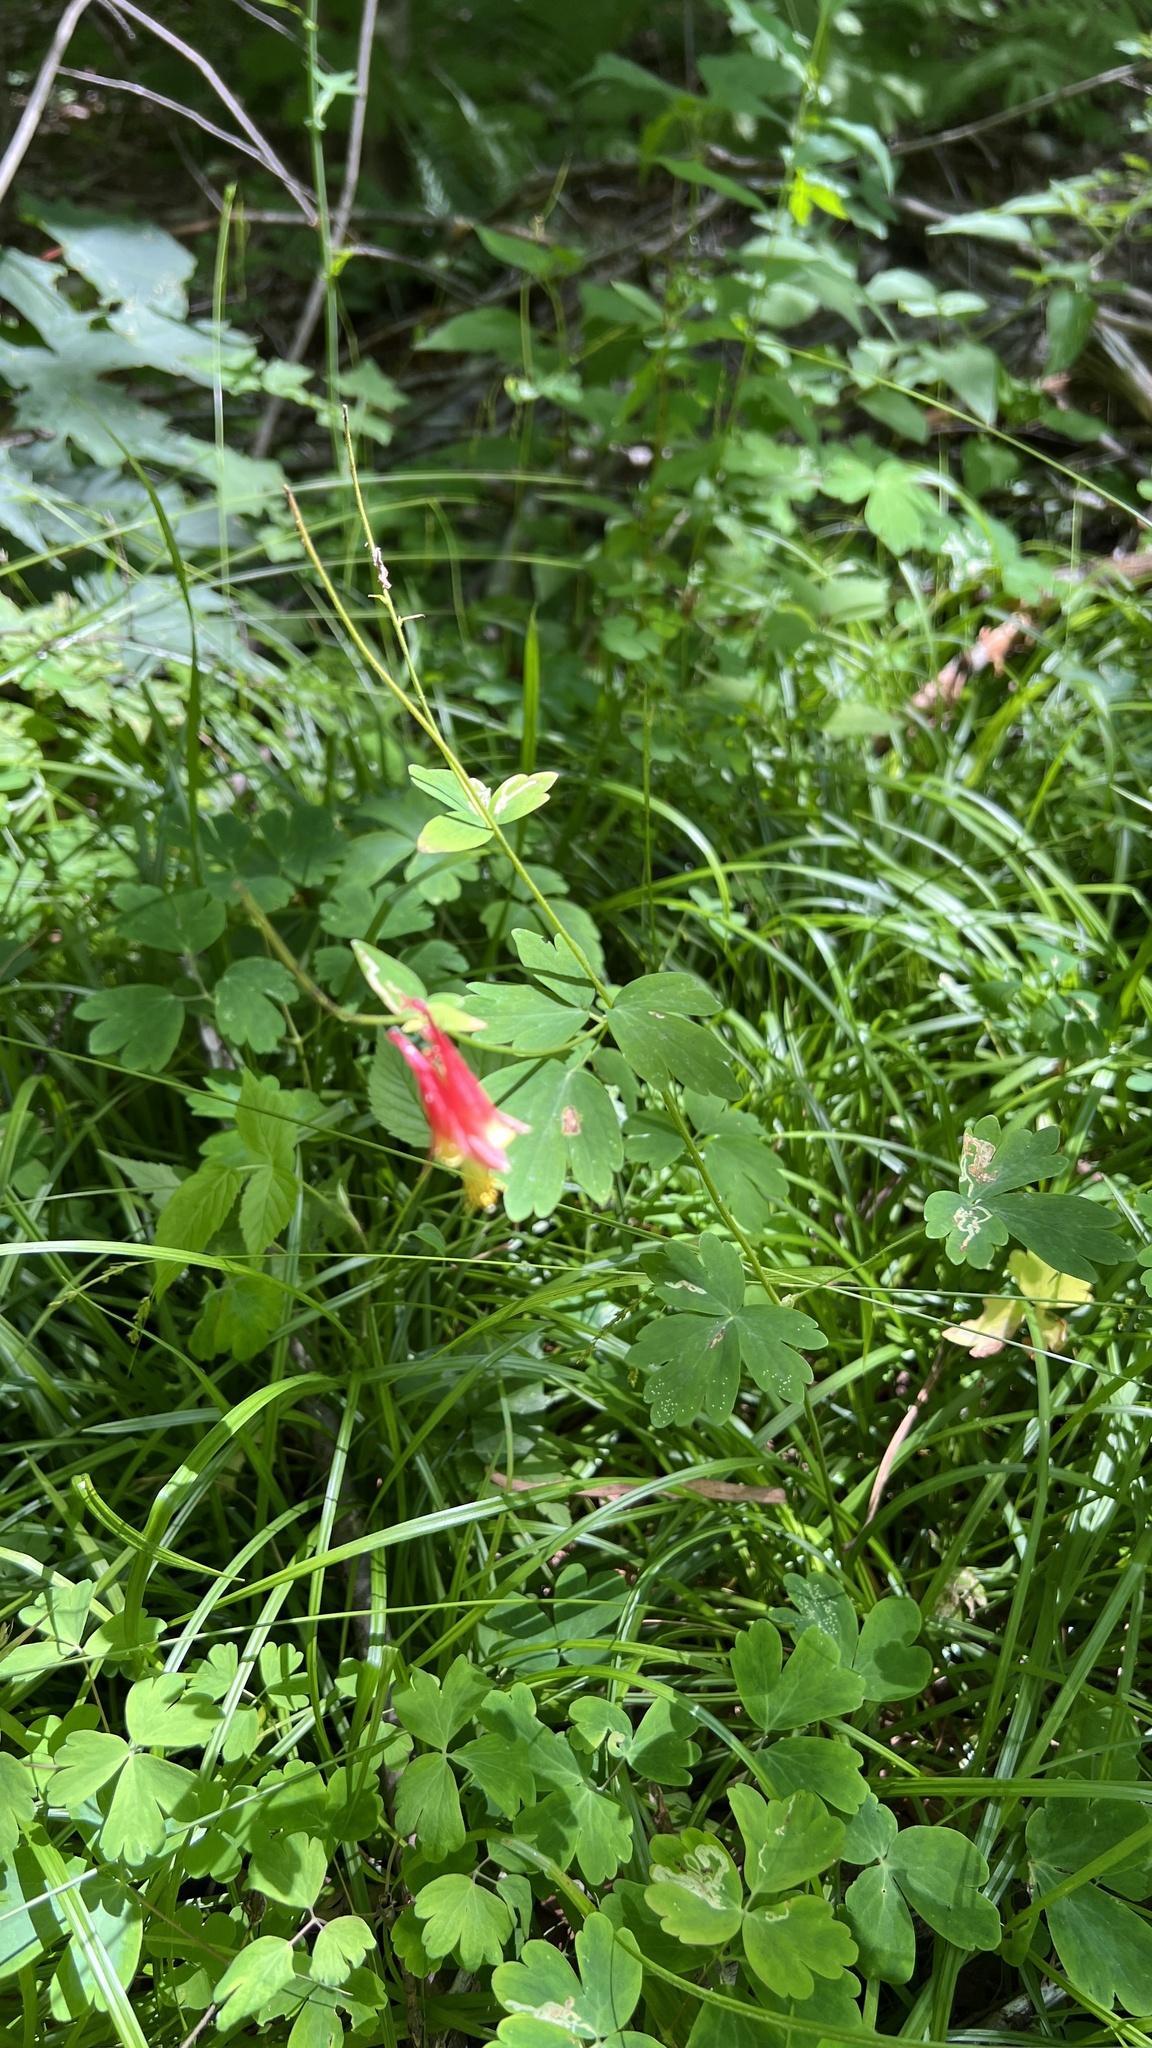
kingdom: Plantae
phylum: Tracheophyta
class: Magnoliopsida
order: Ranunculales
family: Ranunculaceae
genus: Aquilegia
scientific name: Aquilegia canadensis
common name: American columbine
